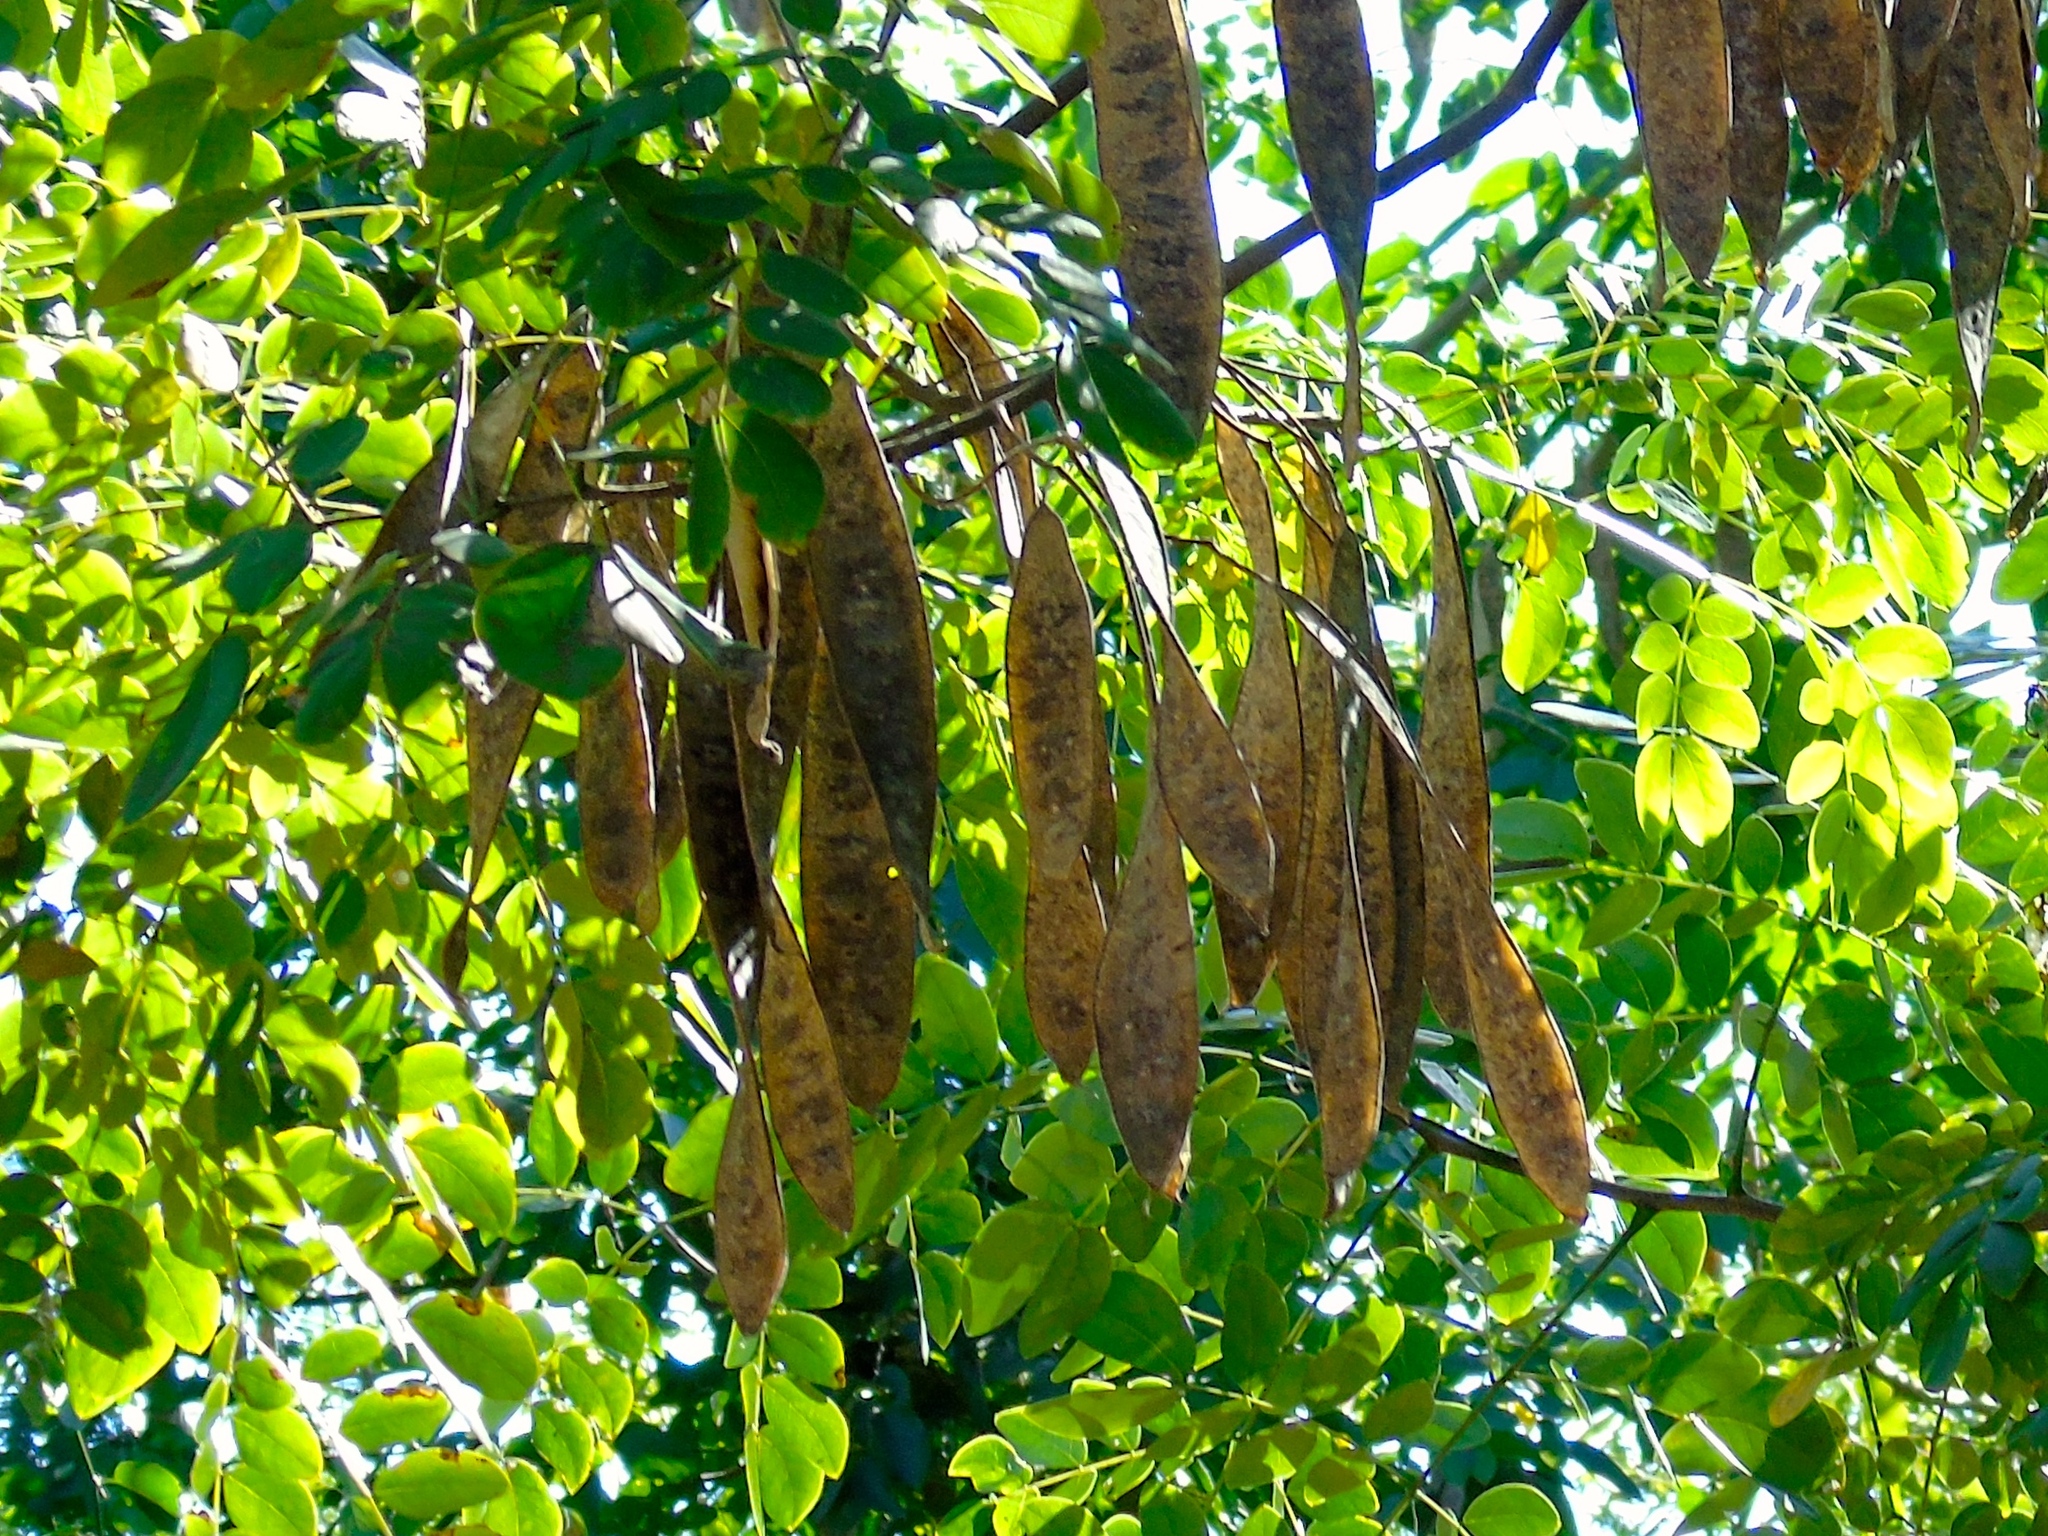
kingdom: Plantae
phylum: Tracheophyta
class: Magnoliopsida
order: Fabales
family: Fabaceae
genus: Albizia
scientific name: Albizia occidentalis
